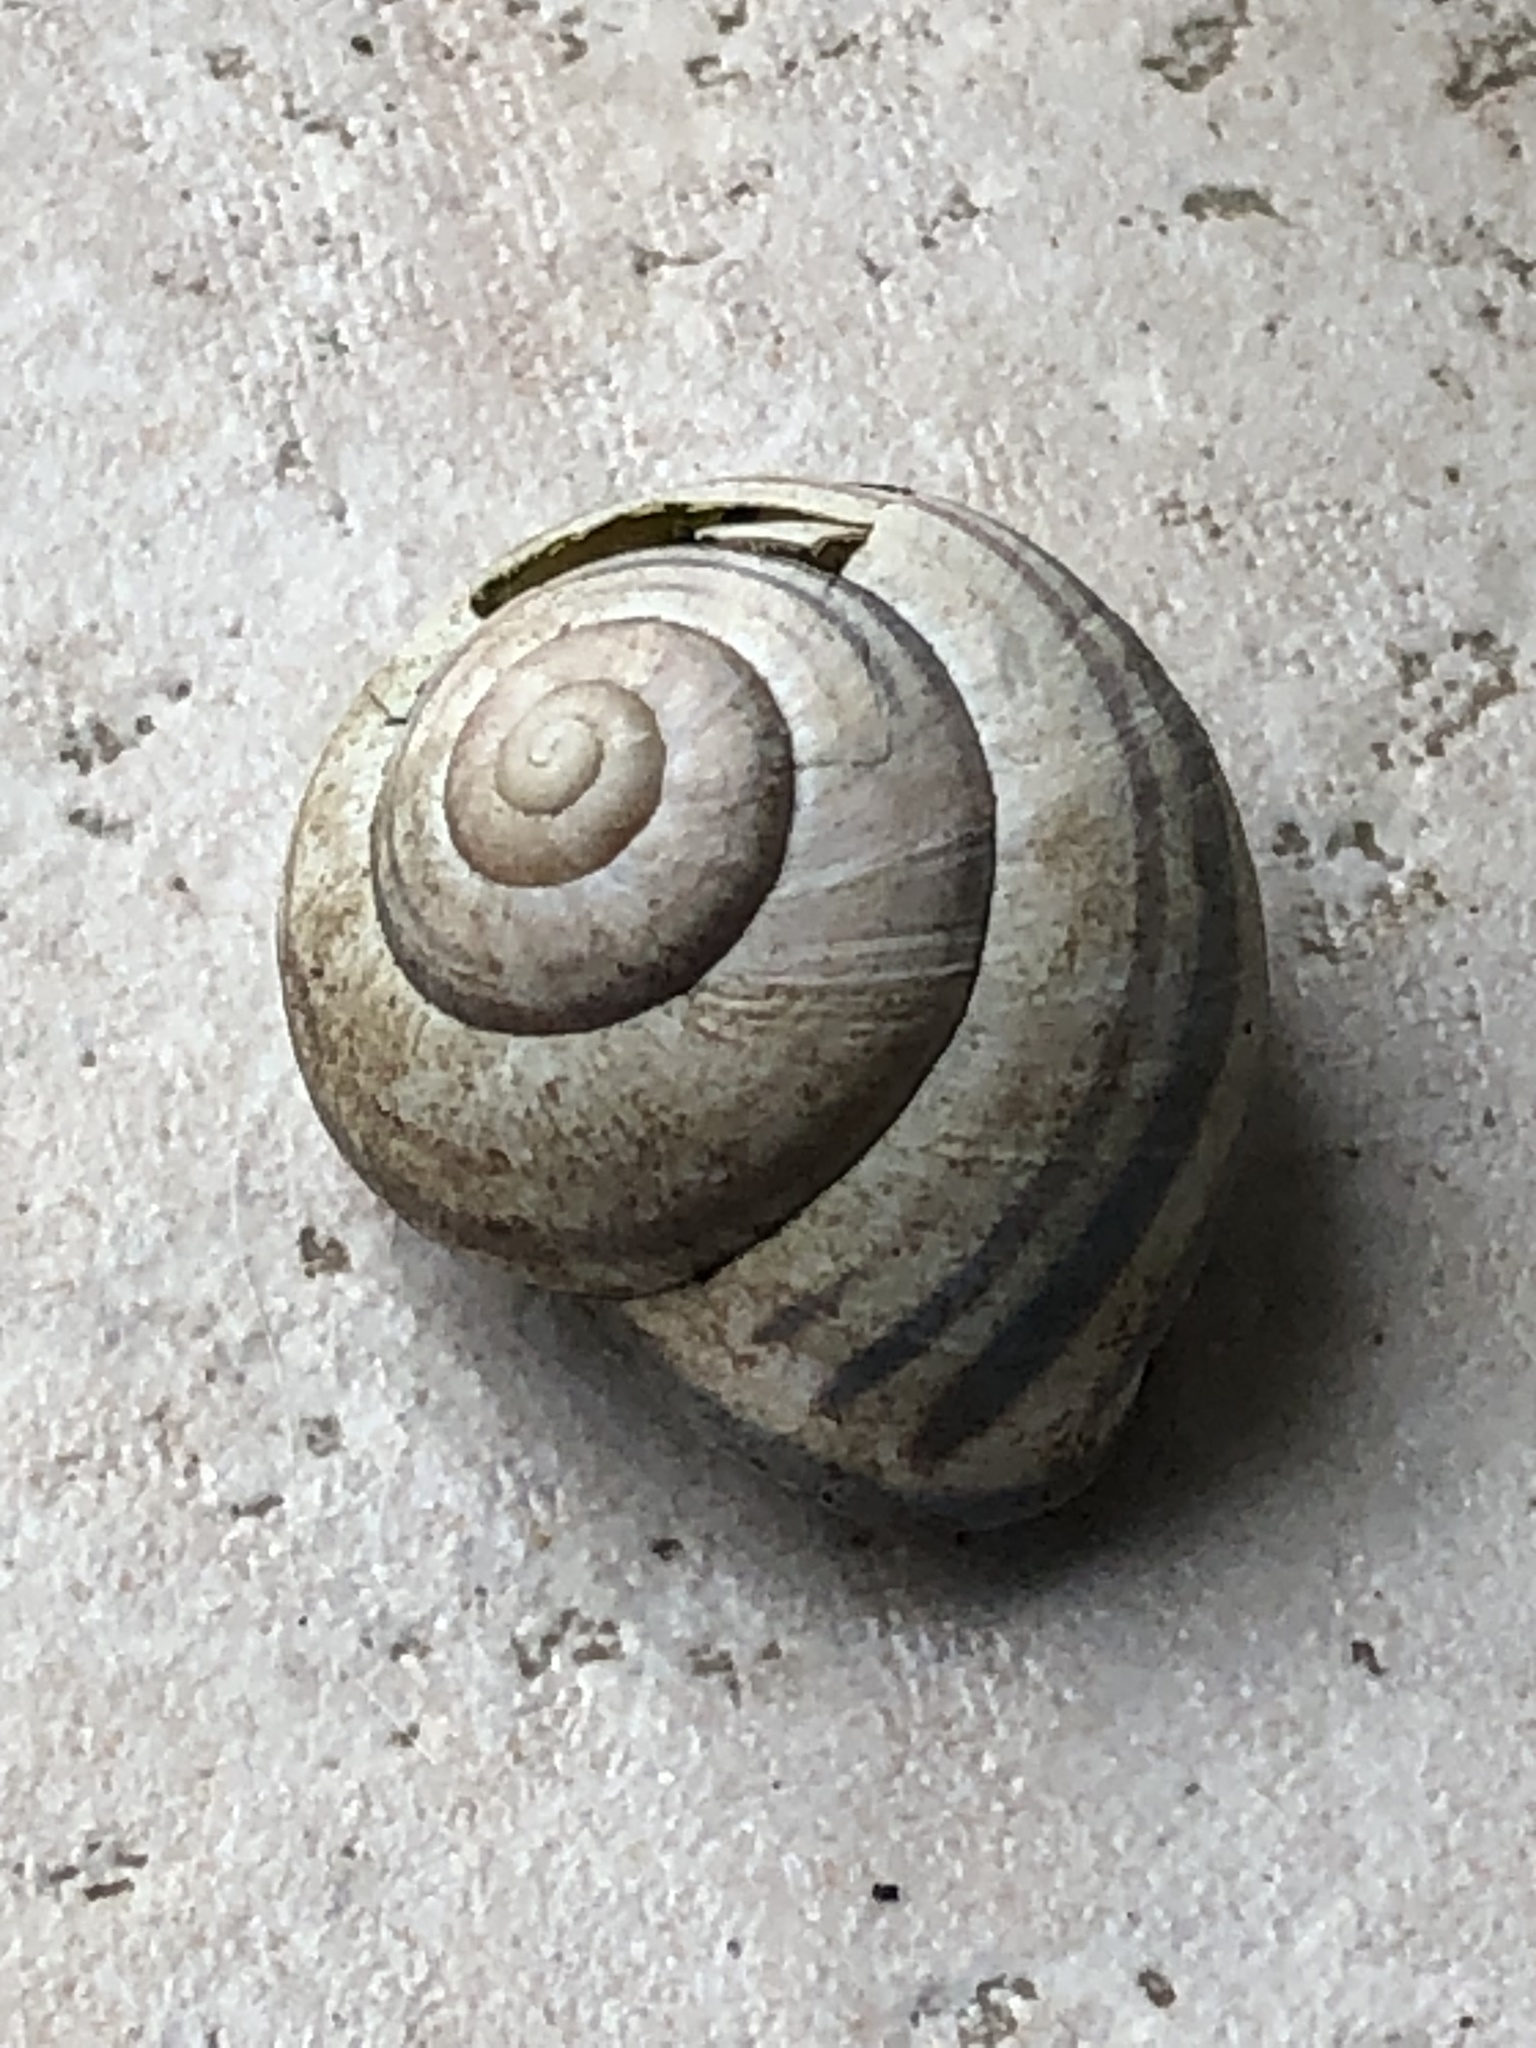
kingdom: Animalia
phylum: Mollusca
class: Gastropoda
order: Stylommatophora
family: Helicidae
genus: Cepaea
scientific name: Cepaea nemoralis
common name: Grovesnail
